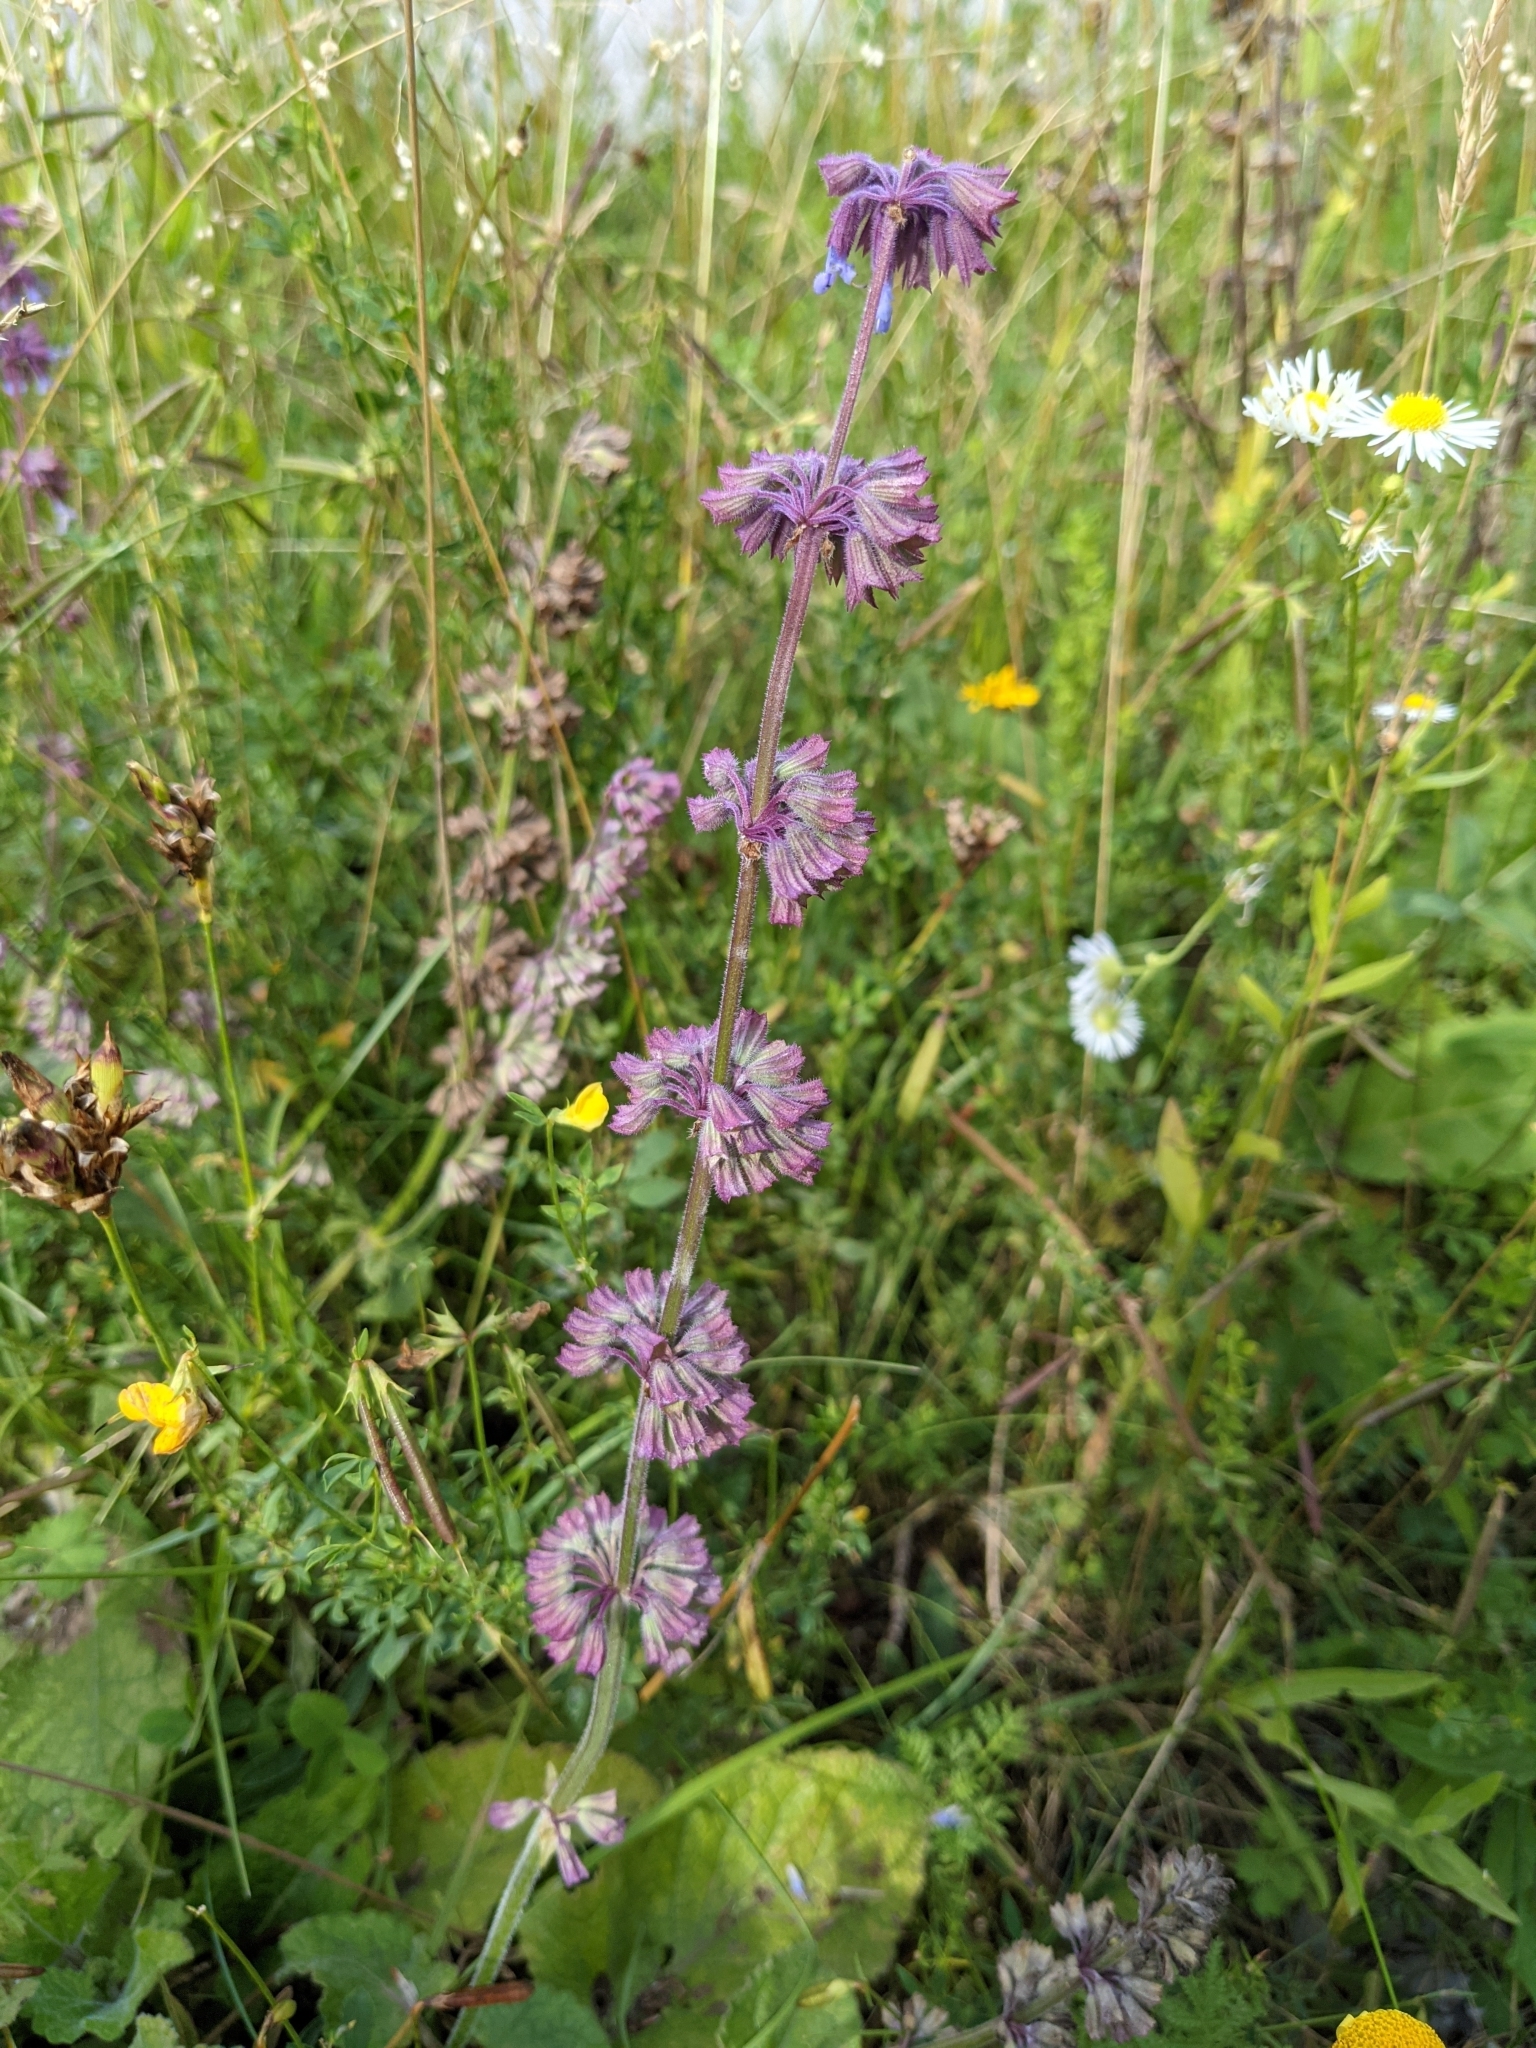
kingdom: Plantae
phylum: Tracheophyta
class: Magnoliopsida
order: Lamiales
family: Lamiaceae
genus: Salvia
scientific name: Salvia verticillata
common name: Whorled clary
